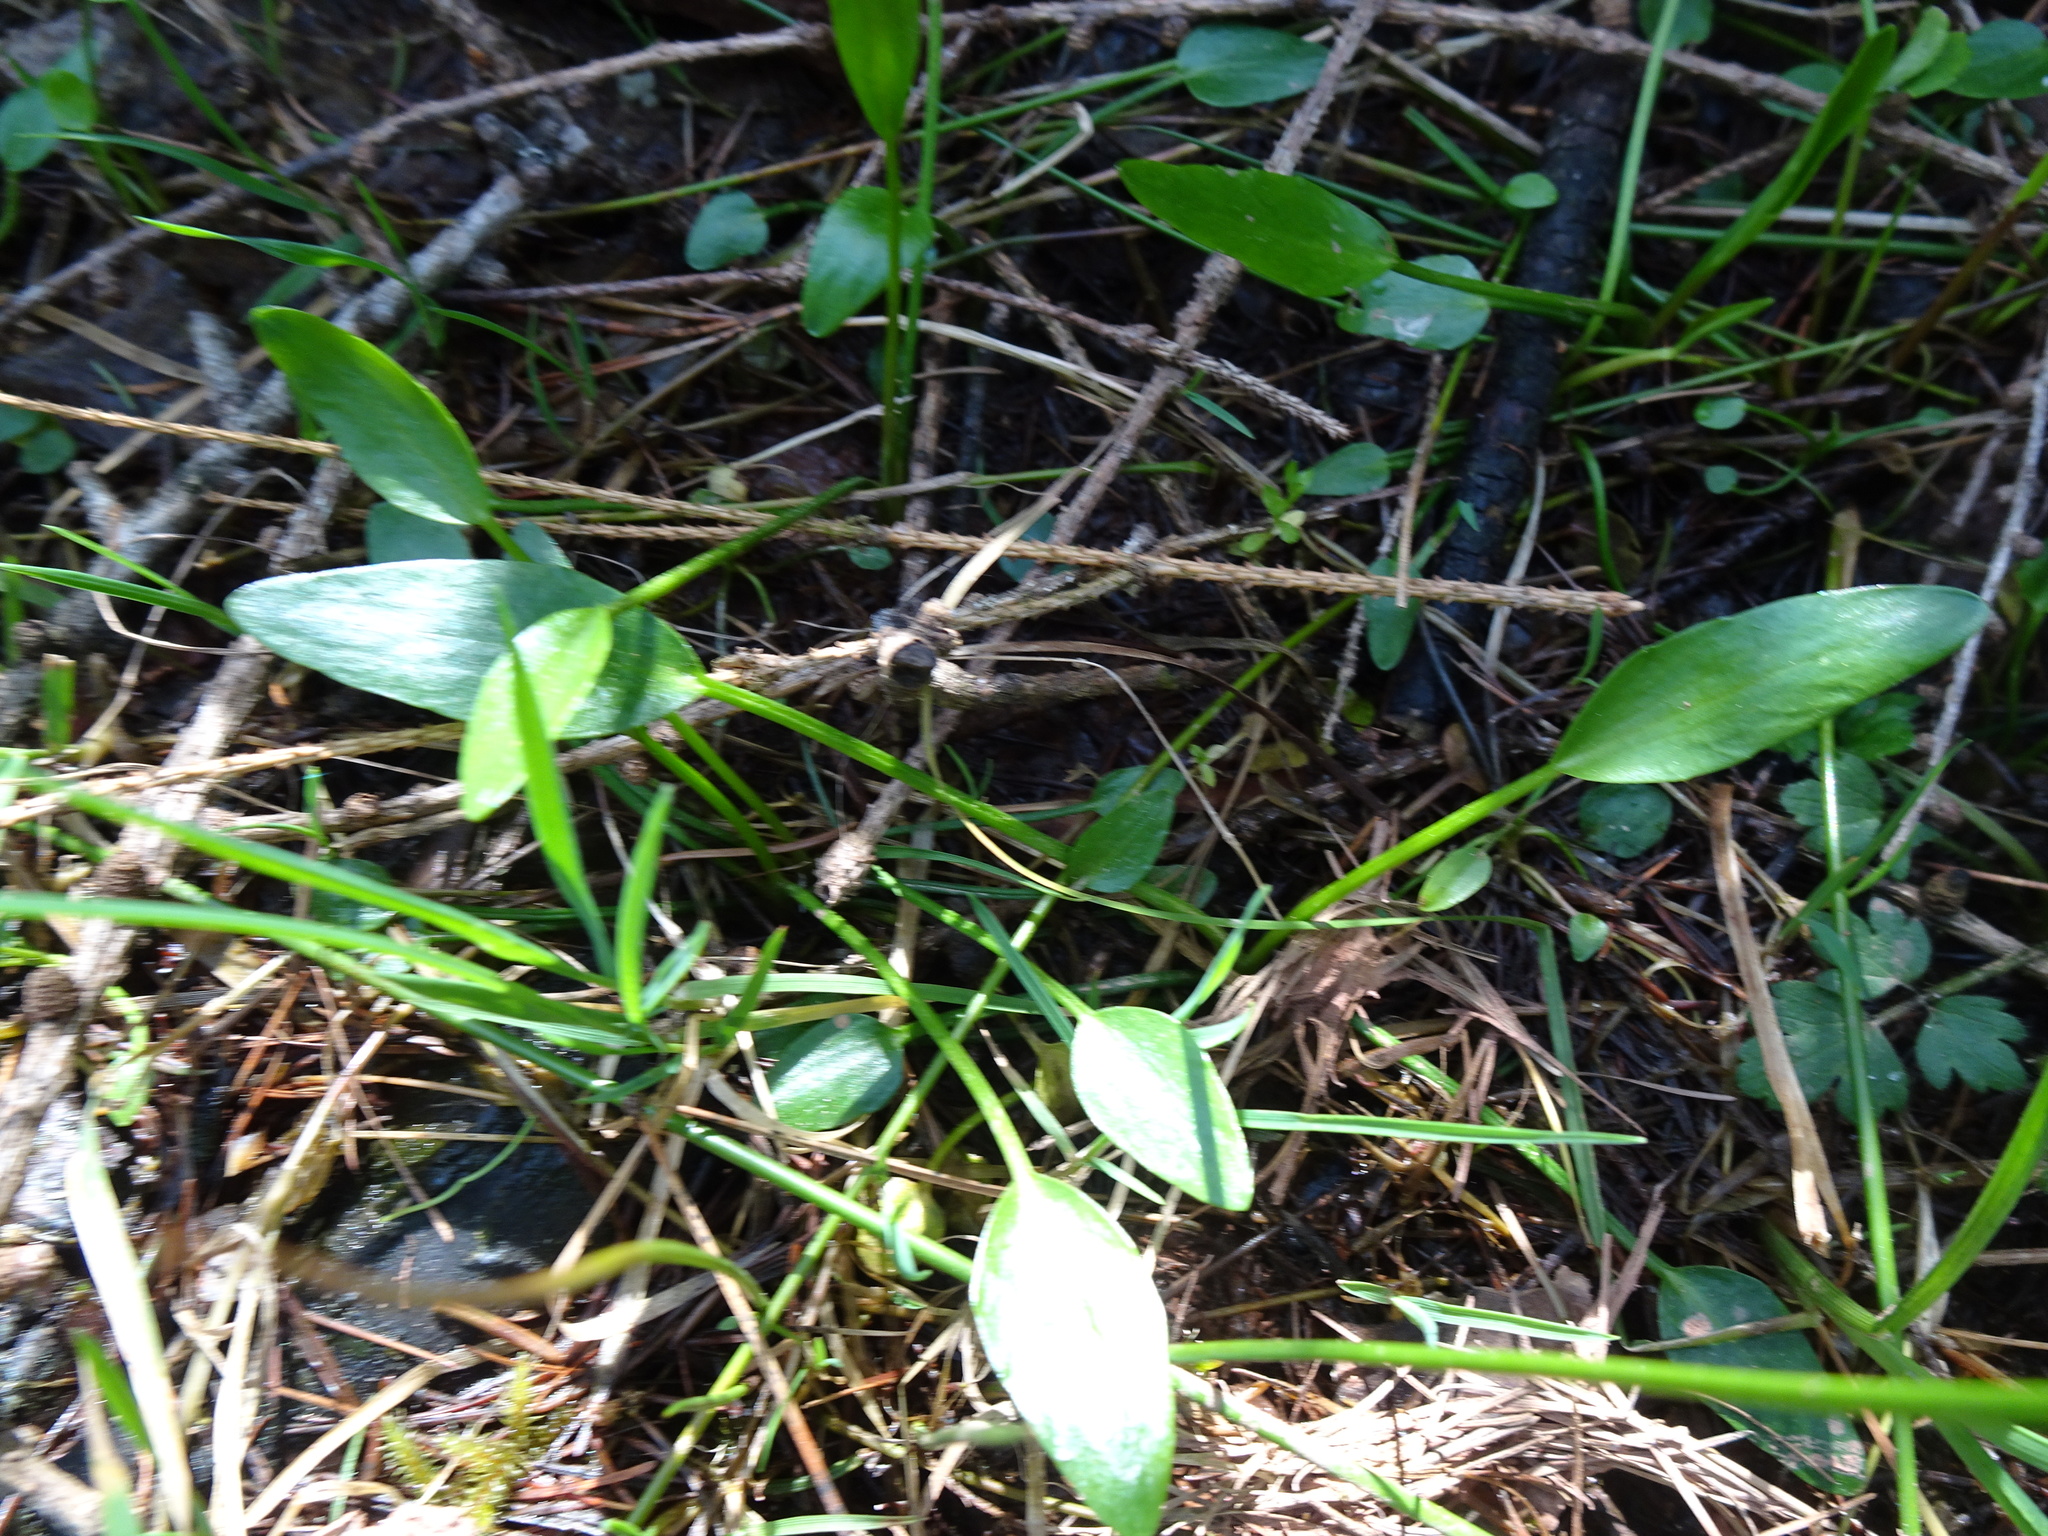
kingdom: Plantae
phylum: Tracheophyta
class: Magnoliopsida
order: Ranunculales
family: Ranunculaceae
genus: Ranunculus
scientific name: Ranunculus flammula
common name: Lesser spearwort
